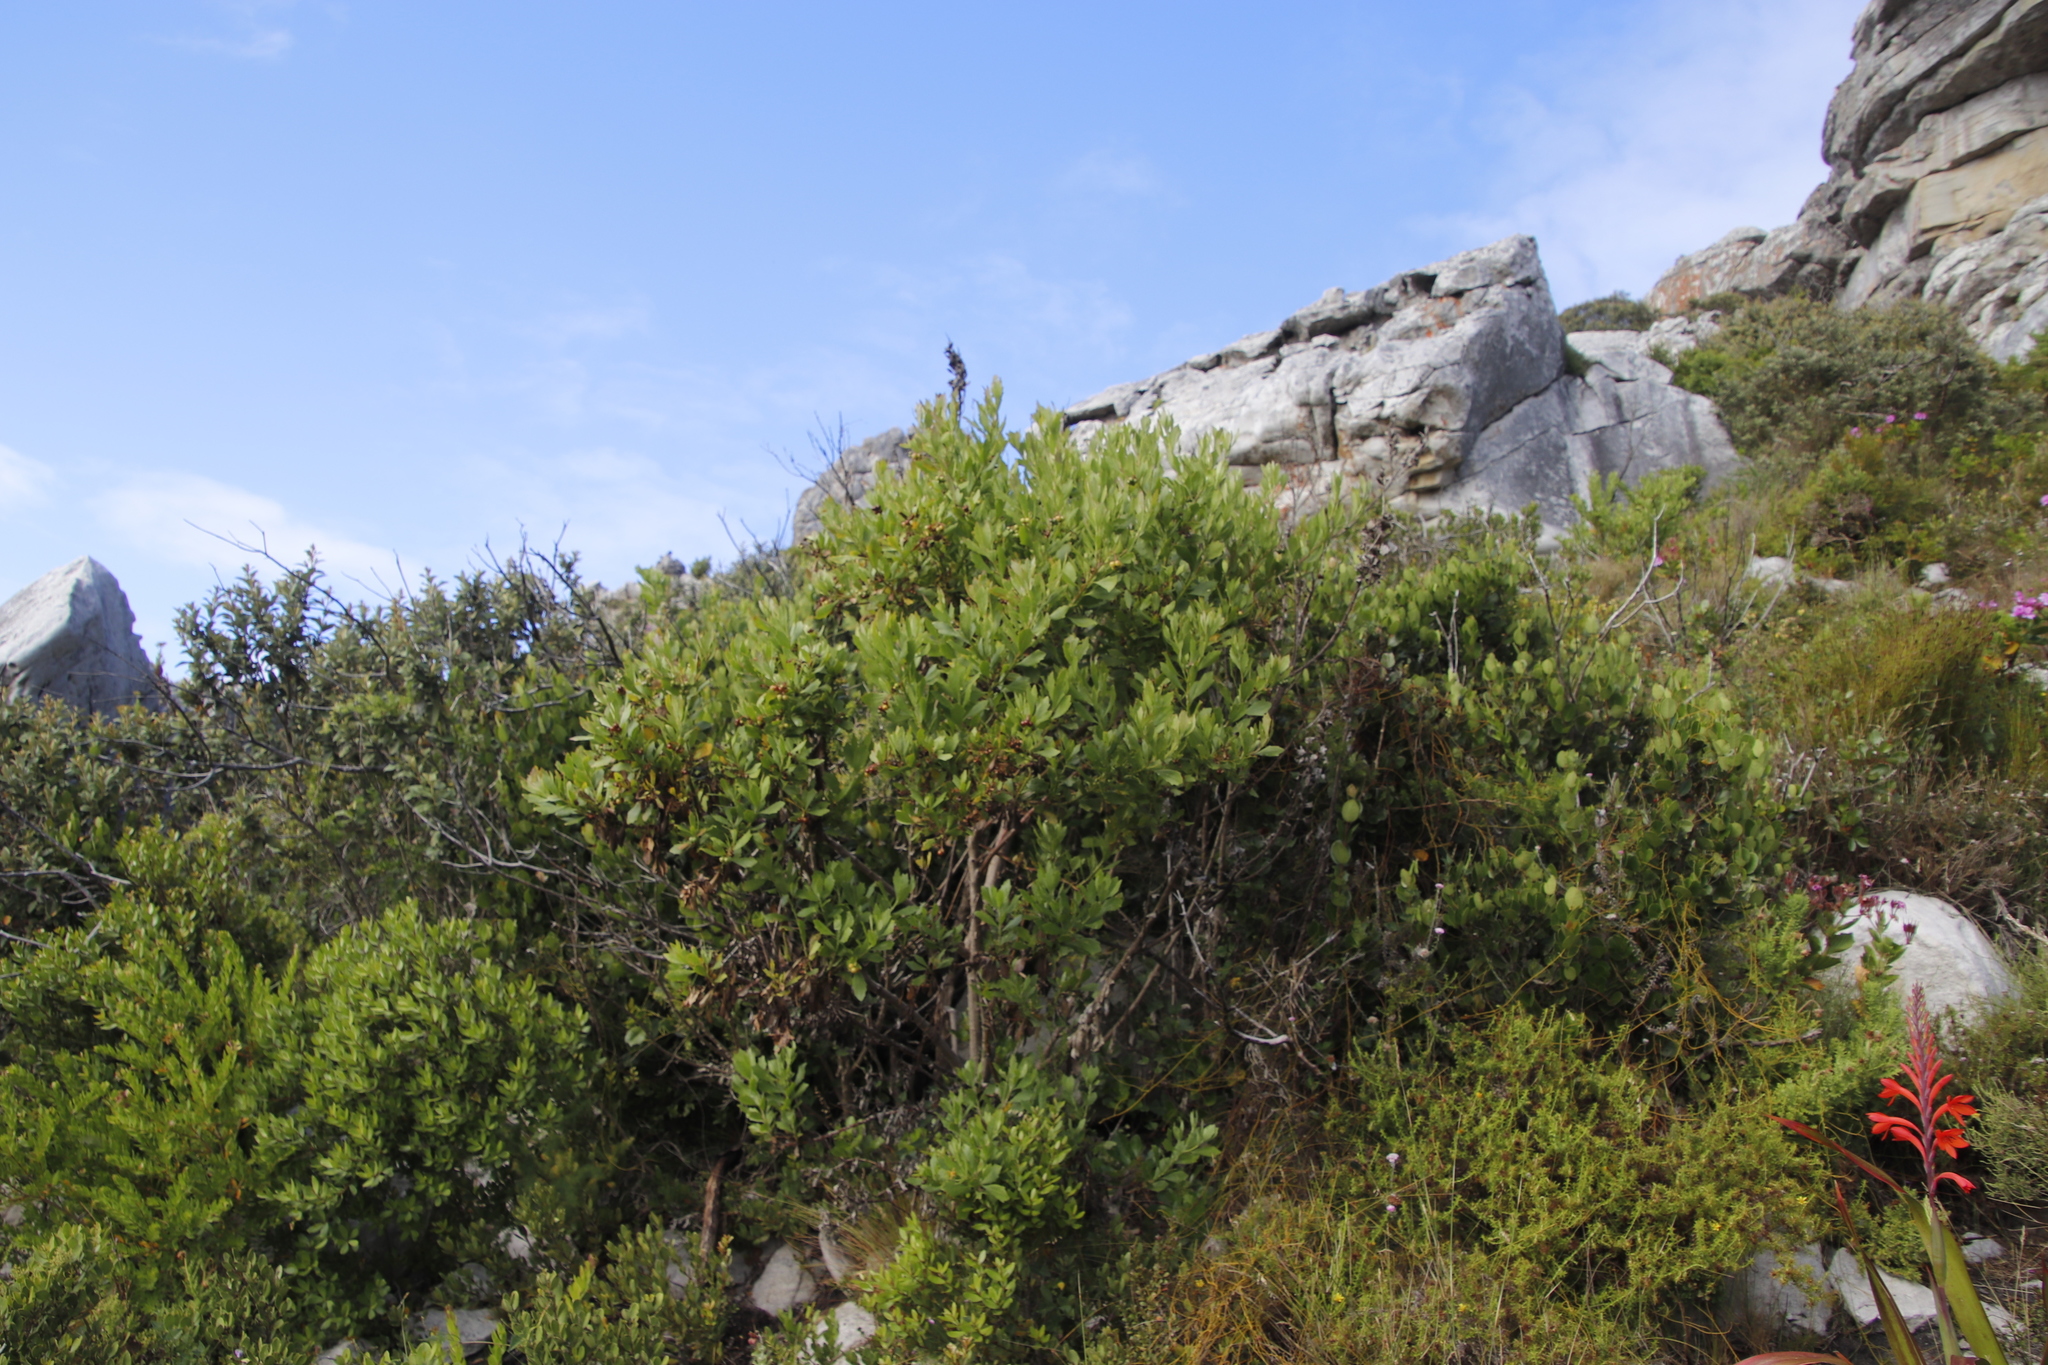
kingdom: Plantae
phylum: Tracheophyta
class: Magnoliopsida
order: Asterales
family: Asteraceae
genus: Osteospermum
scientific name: Osteospermum moniliferum
